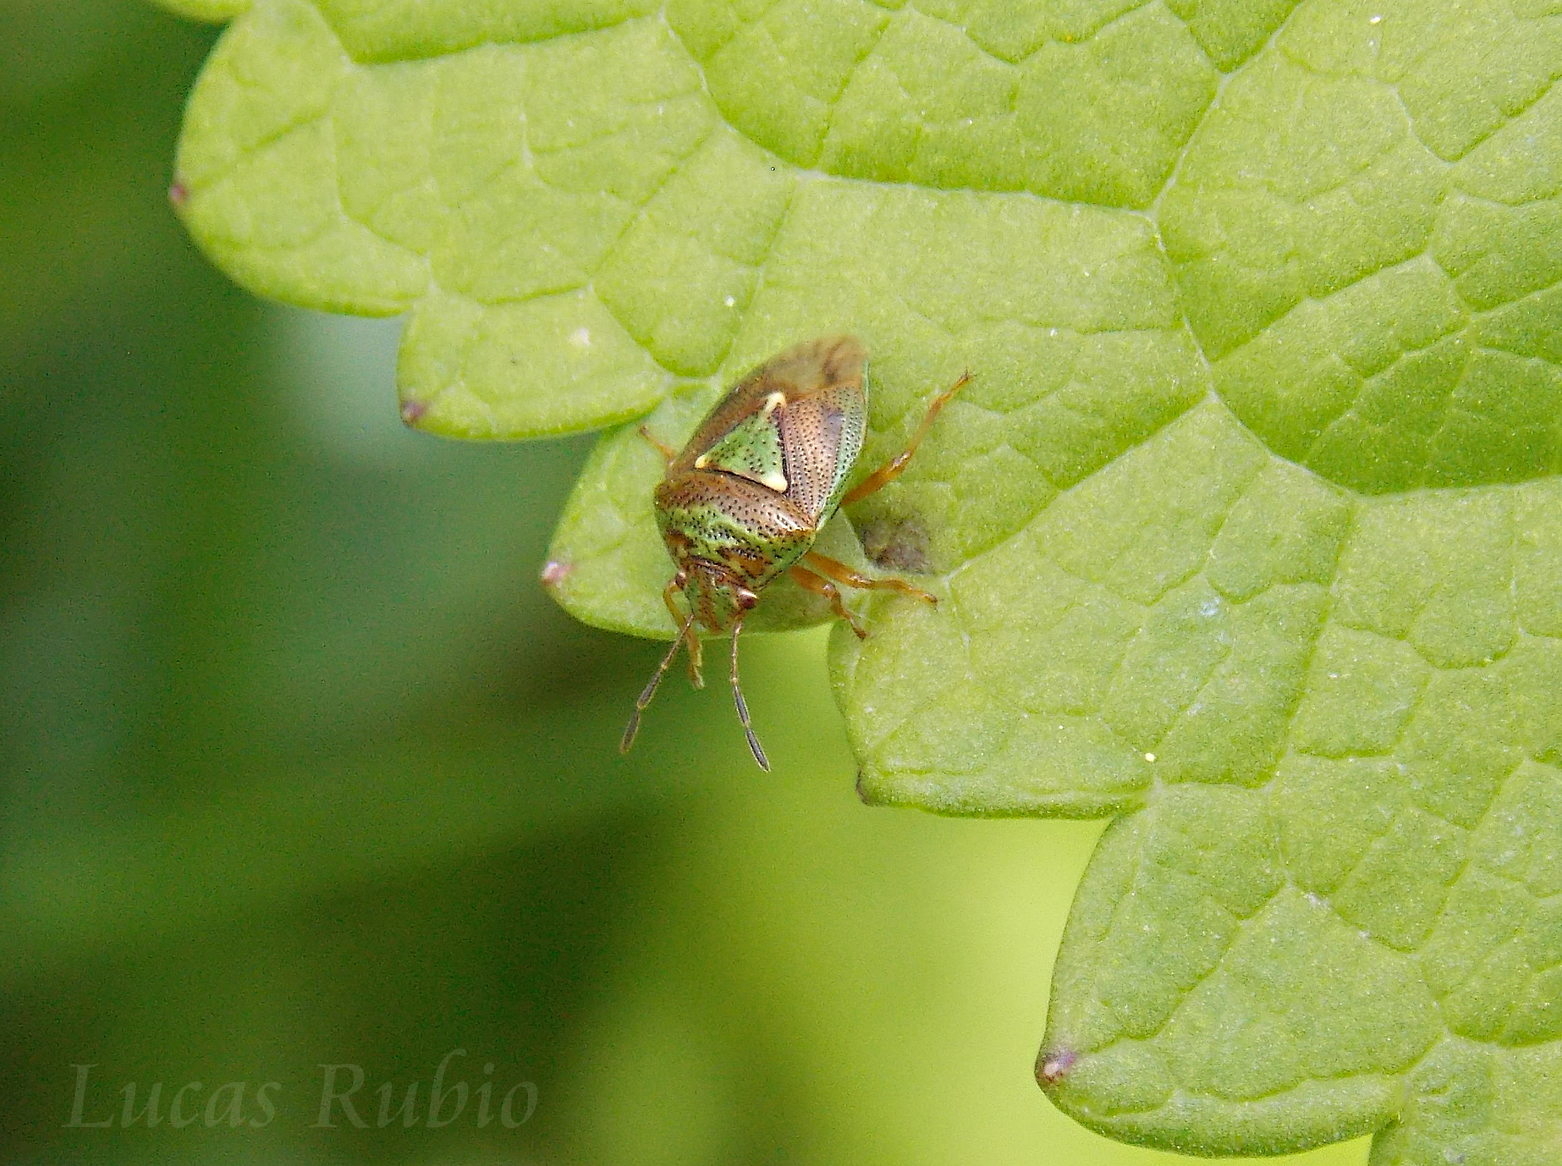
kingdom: Animalia
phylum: Arthropoda
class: Insecta
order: Hemiptera
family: Acanthosomatidae
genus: Hellica
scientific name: Hellica nitida
